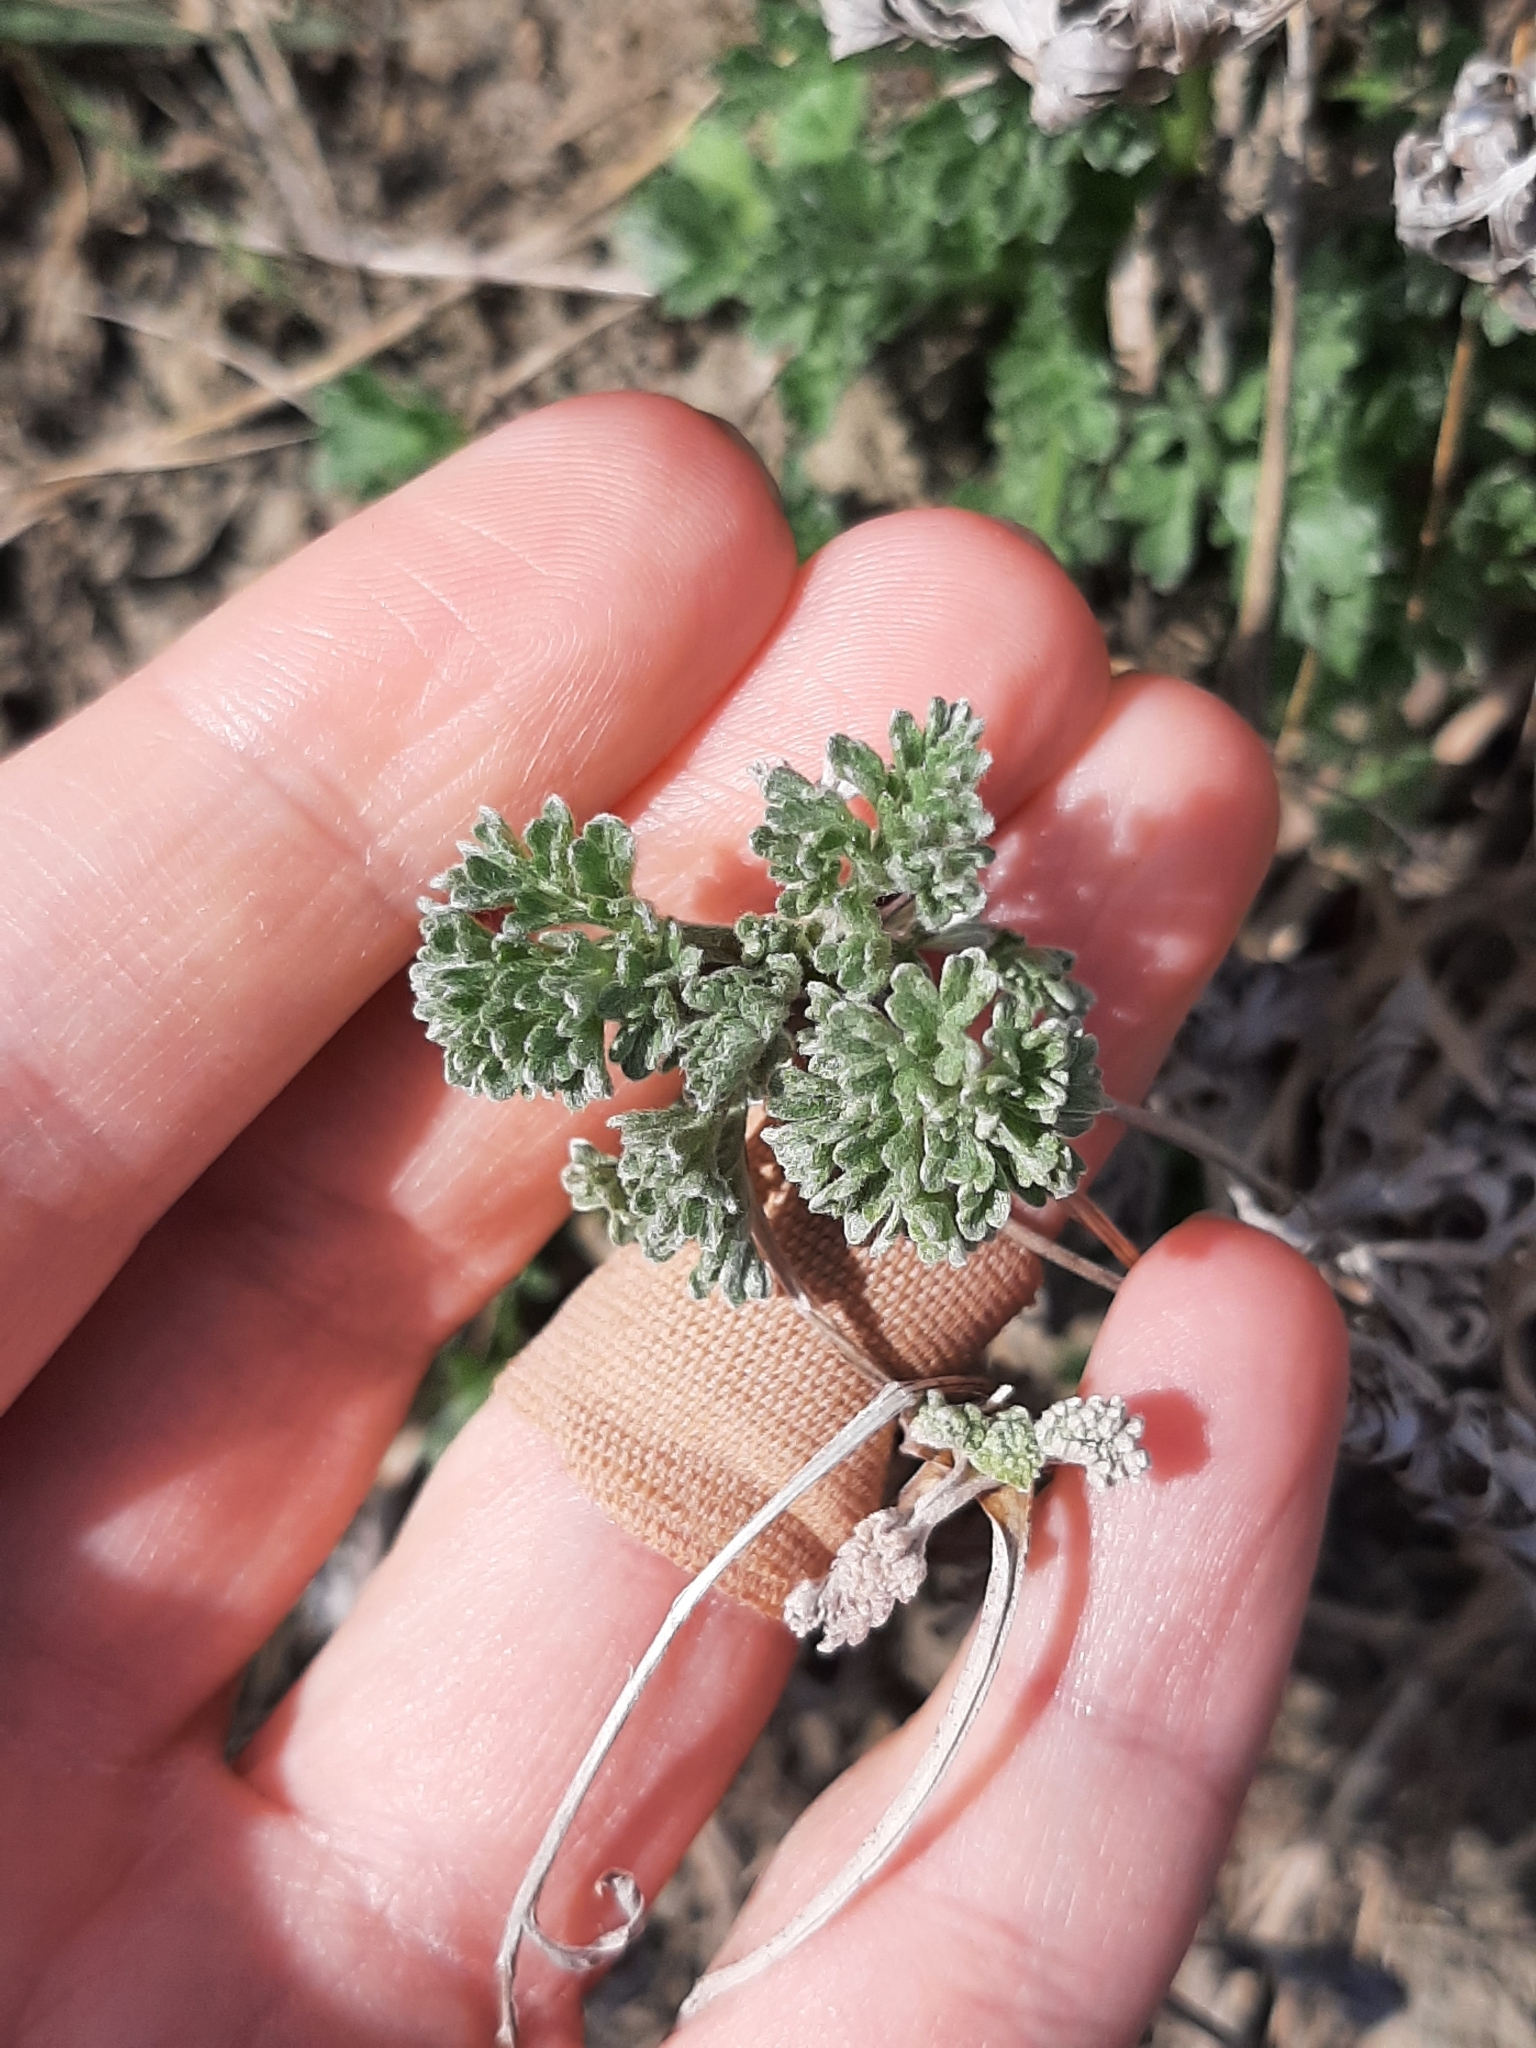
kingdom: Plantae
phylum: Tracheophyta
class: Magnoliopsida
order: Asterales
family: Asteraceae
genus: Artemisia
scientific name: Artemisia absinthium
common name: Wormwood
